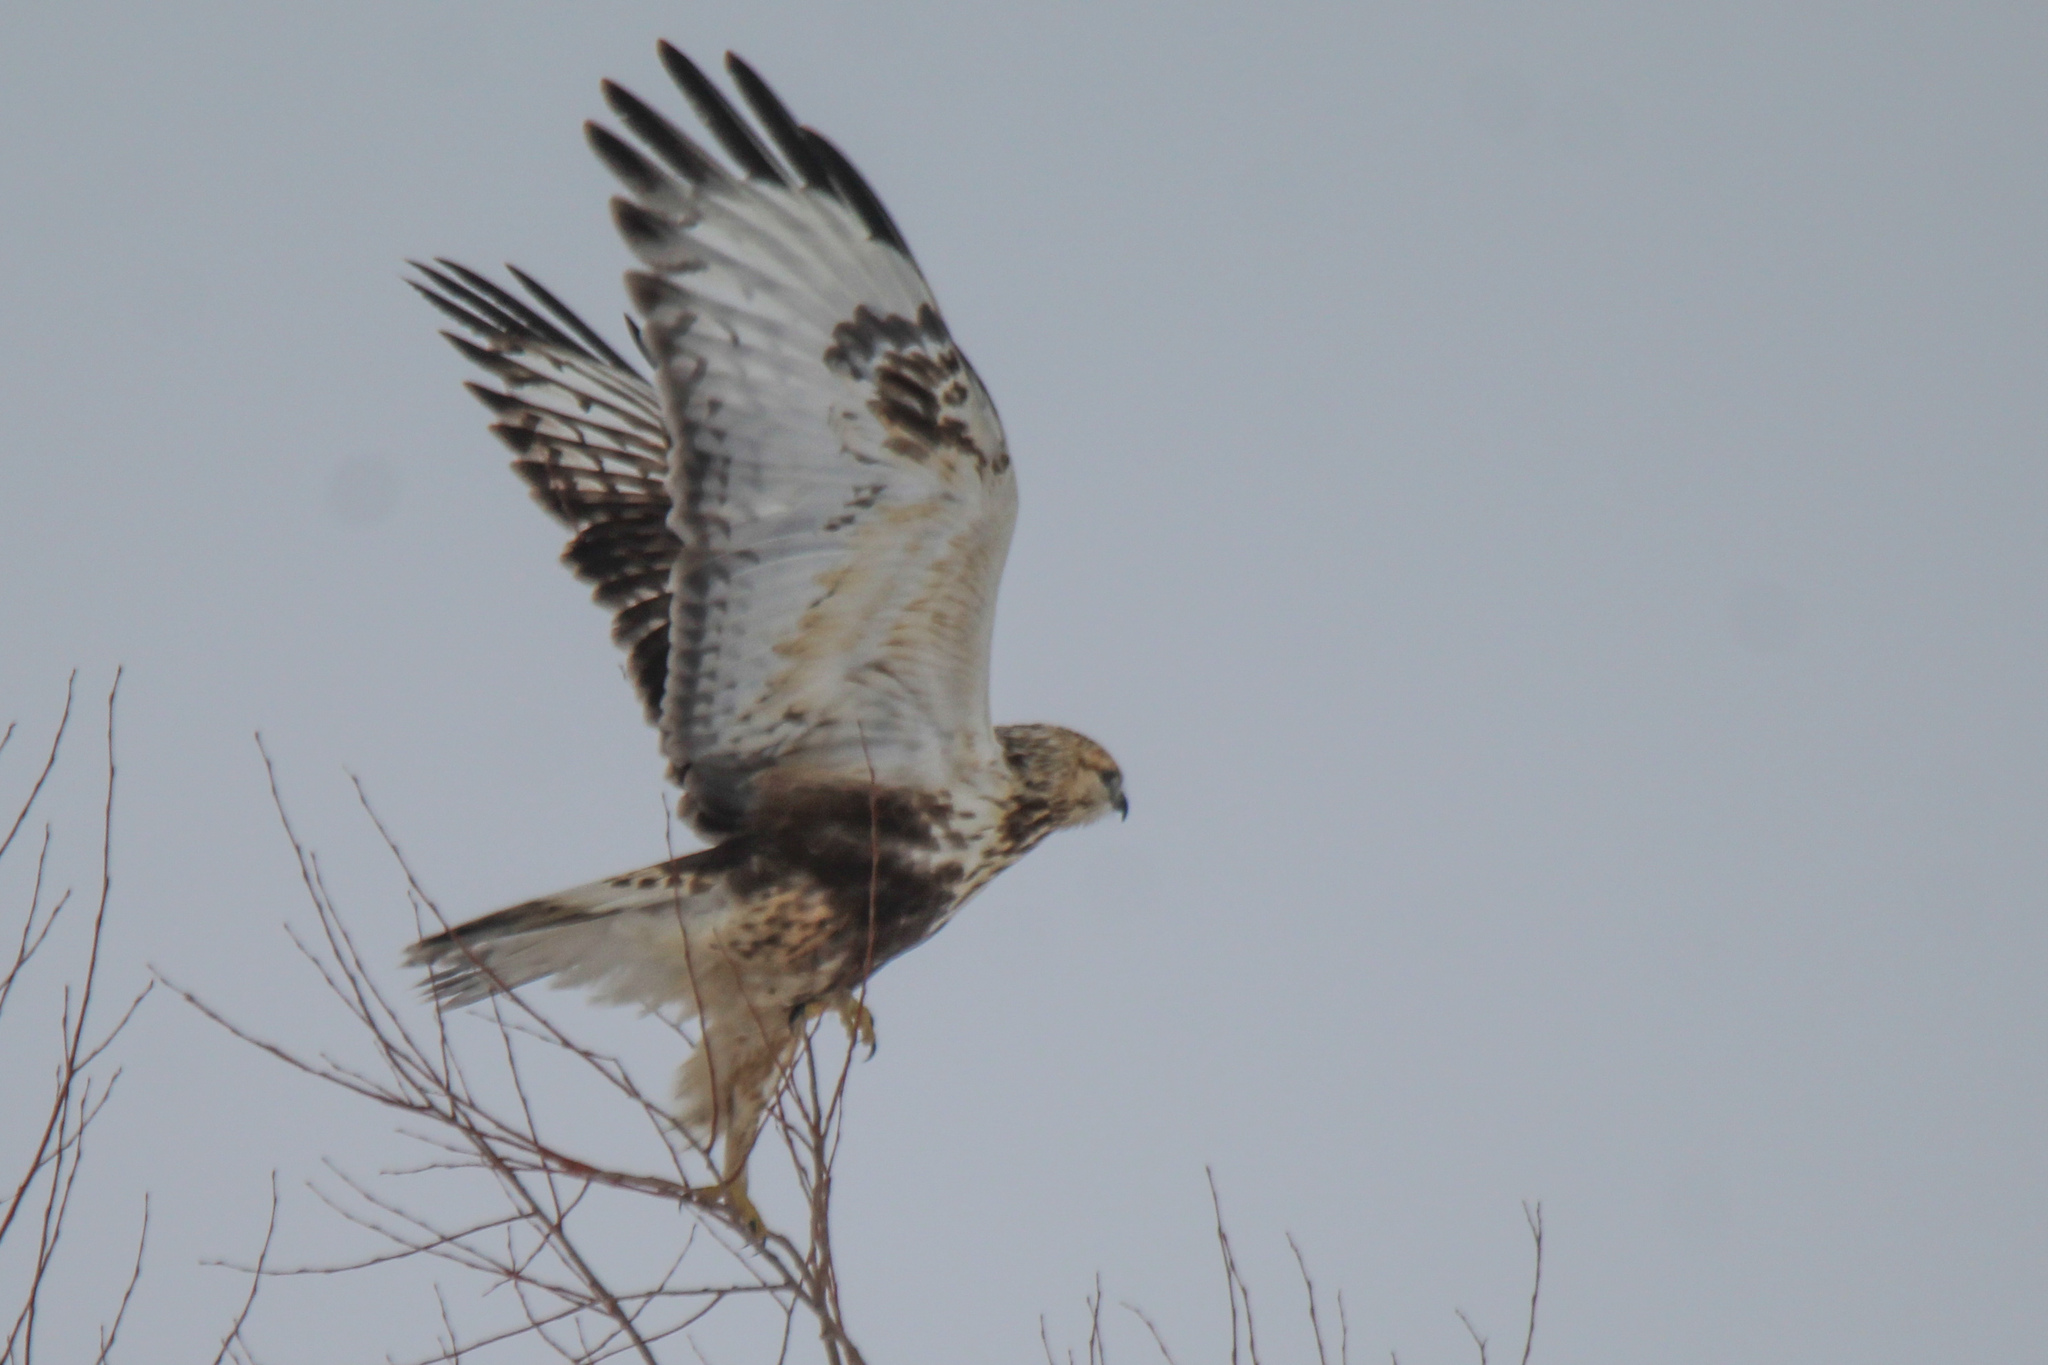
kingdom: Animalia
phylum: Chordata
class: Aves
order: Accipitriformes
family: Accipitridae
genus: Buteo
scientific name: Buteo lagopus
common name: Rough-legged buzzard
